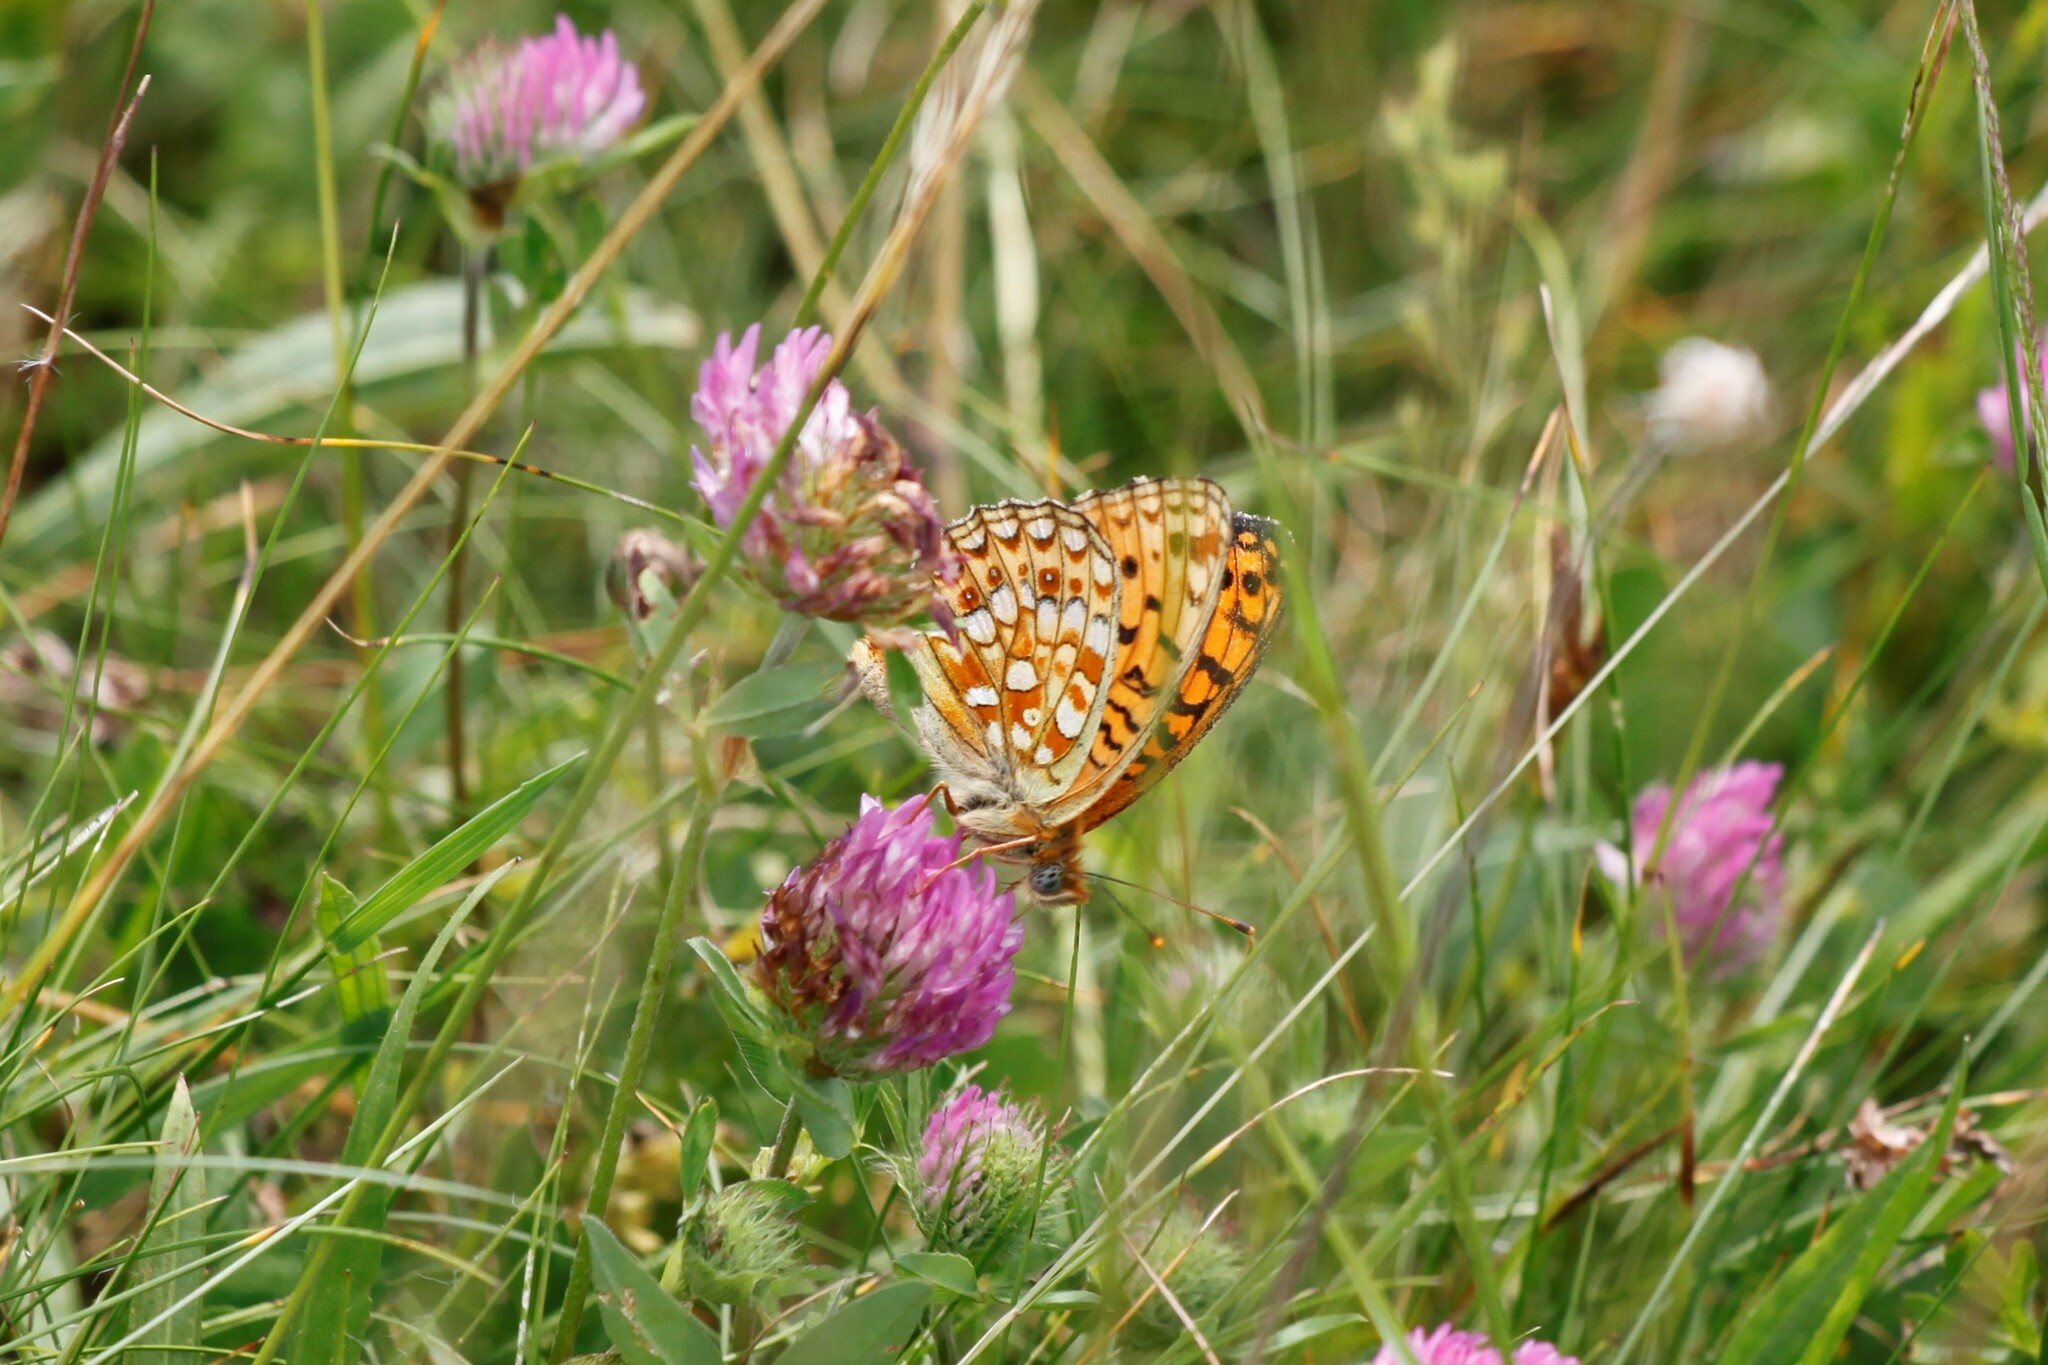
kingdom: Animalia
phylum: Arthropoda
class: Insecta
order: Lepidoptera
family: Nymphalidae
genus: Fabriciana
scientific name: Fabriciana niobe
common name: Niobe fritillary
